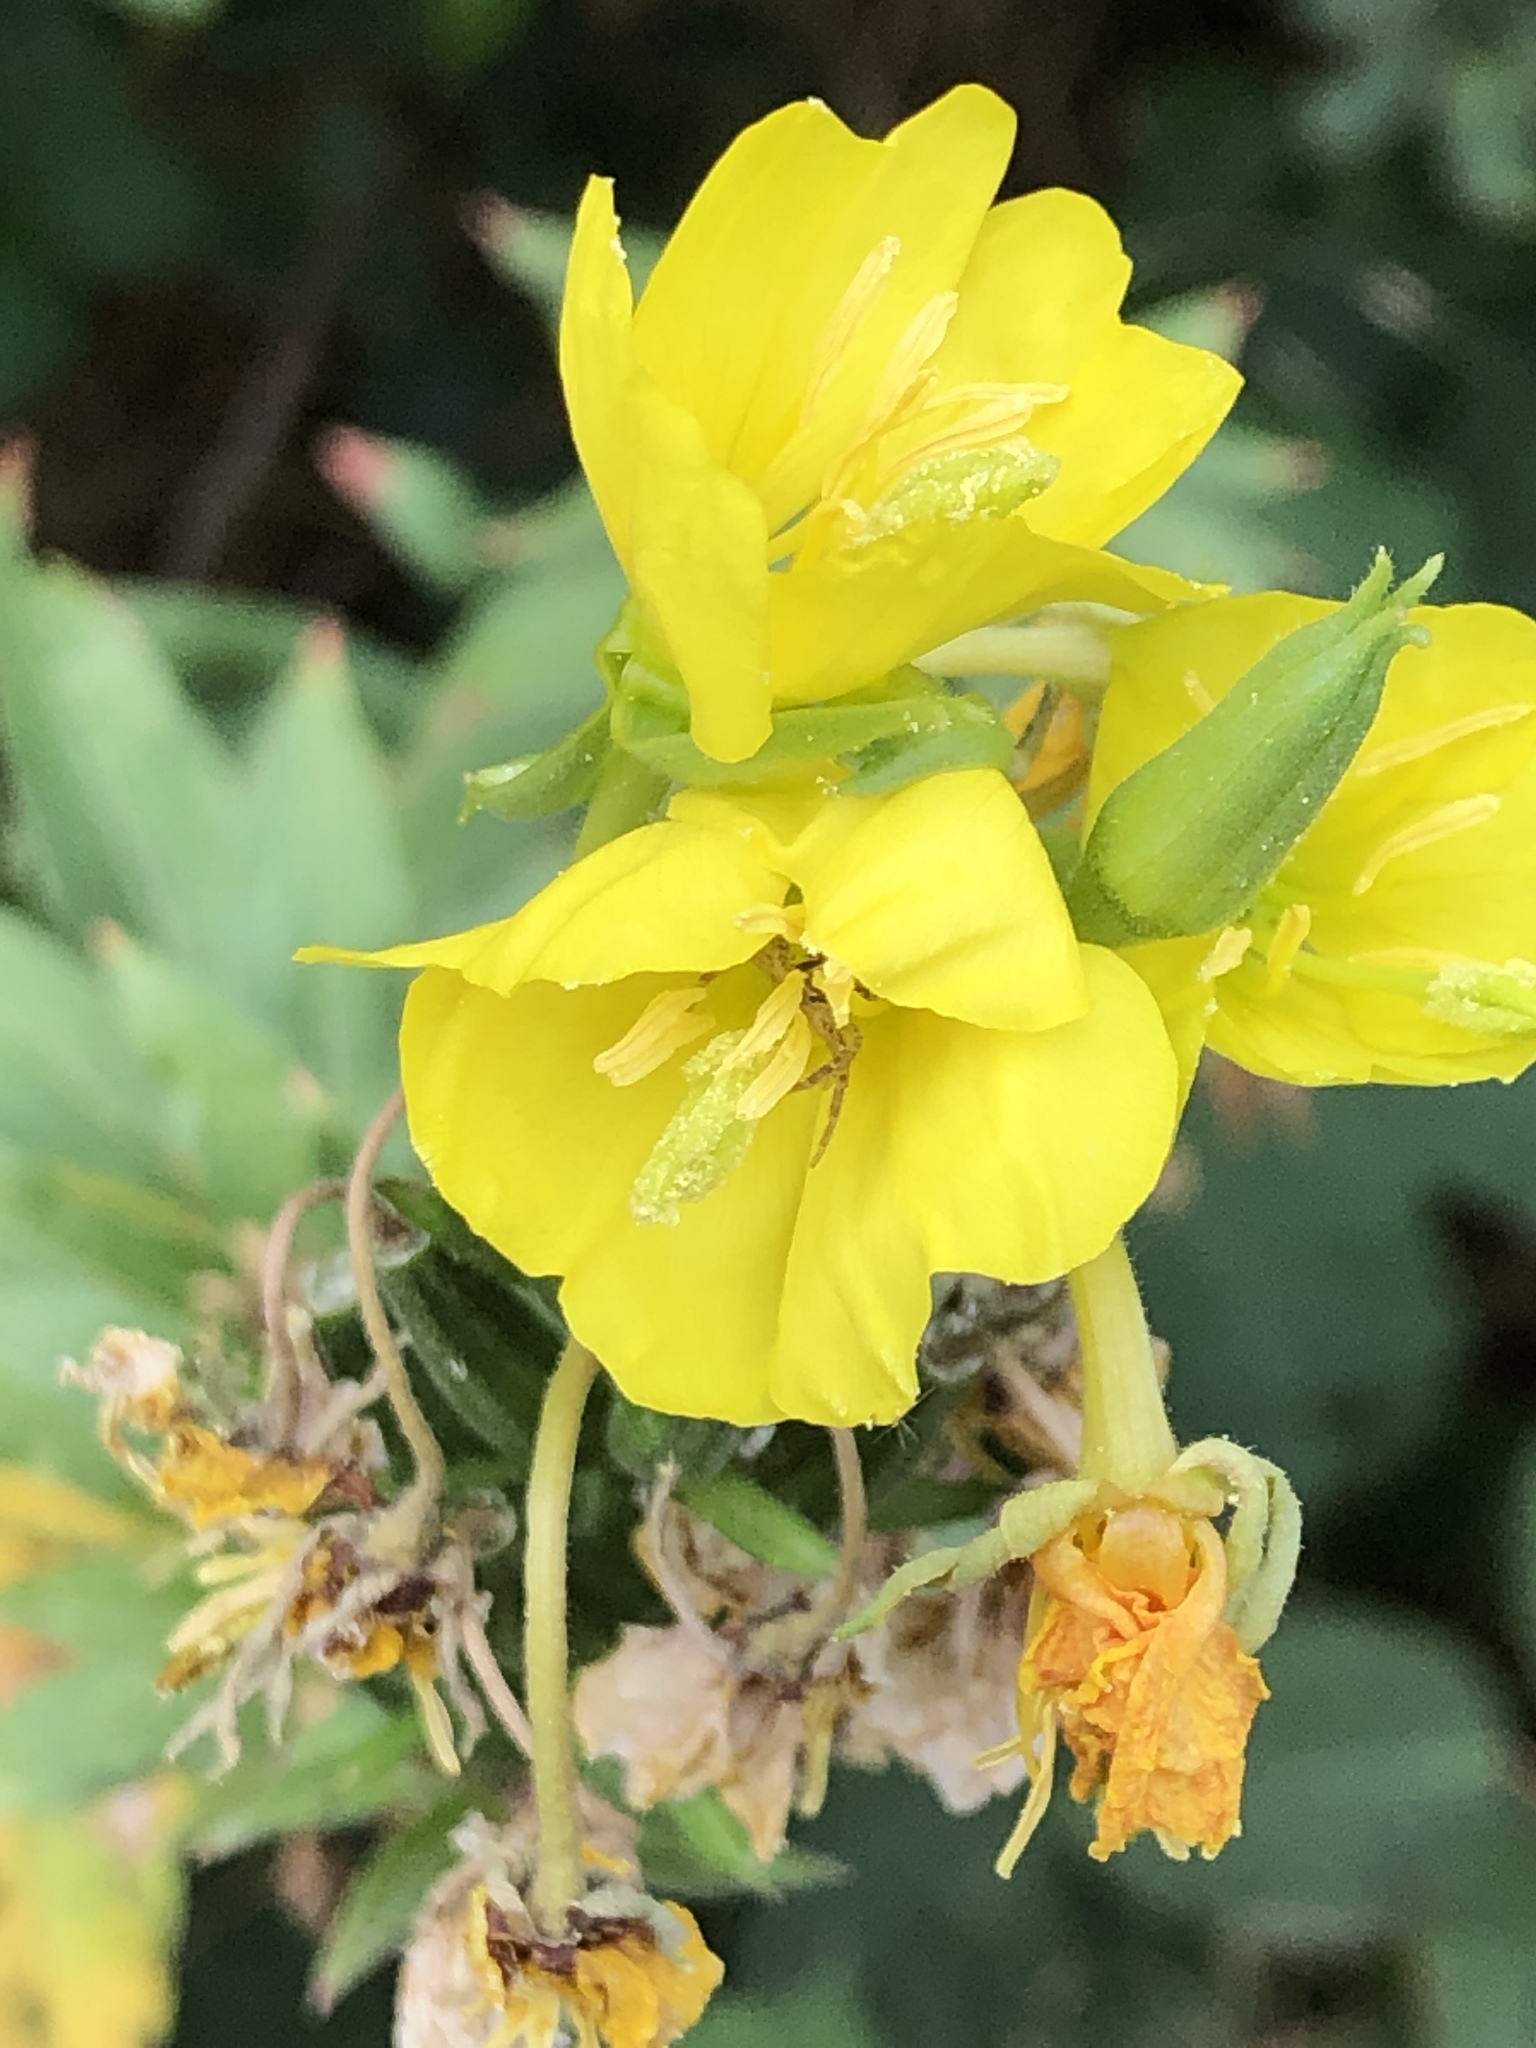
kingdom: Plantae
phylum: Tracheophyta
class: Magnoliopsida
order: Myrtales
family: Onagraceae
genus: Oenothera
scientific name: Oenothera biennis
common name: Common evening-primrose
